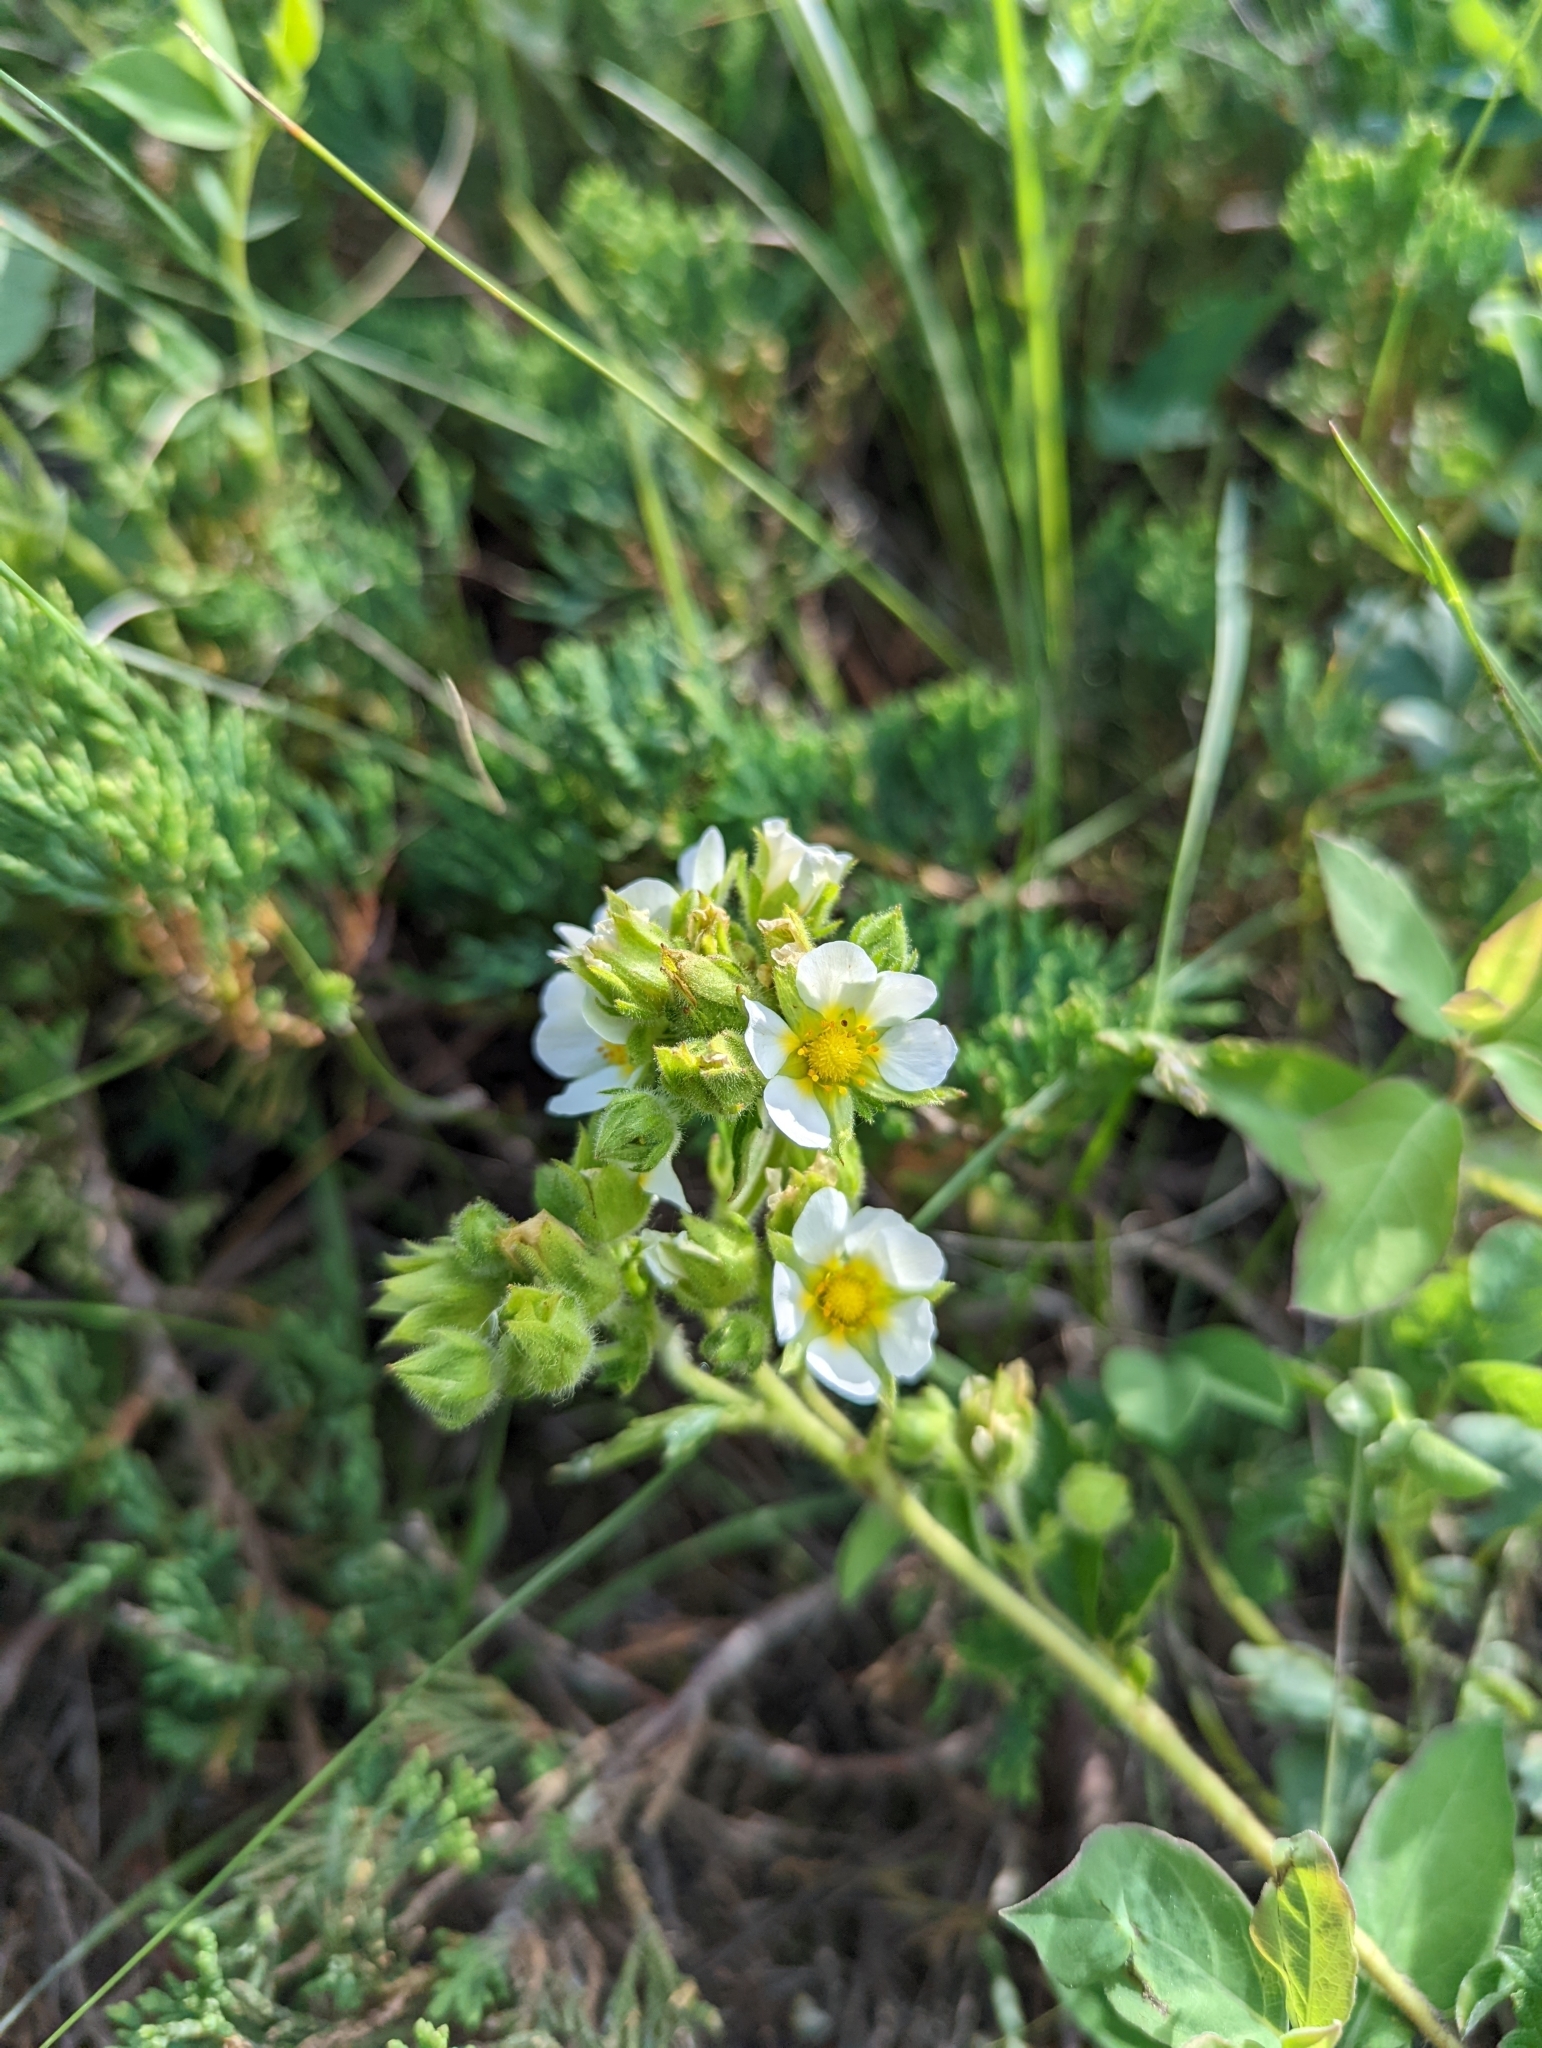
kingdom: Plantae
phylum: Tracheophyta
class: Magnoliopsida
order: Rosales
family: Rosaceae
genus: Drymocallis
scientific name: Drymocallis arguta
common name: Tall cinquefoil
